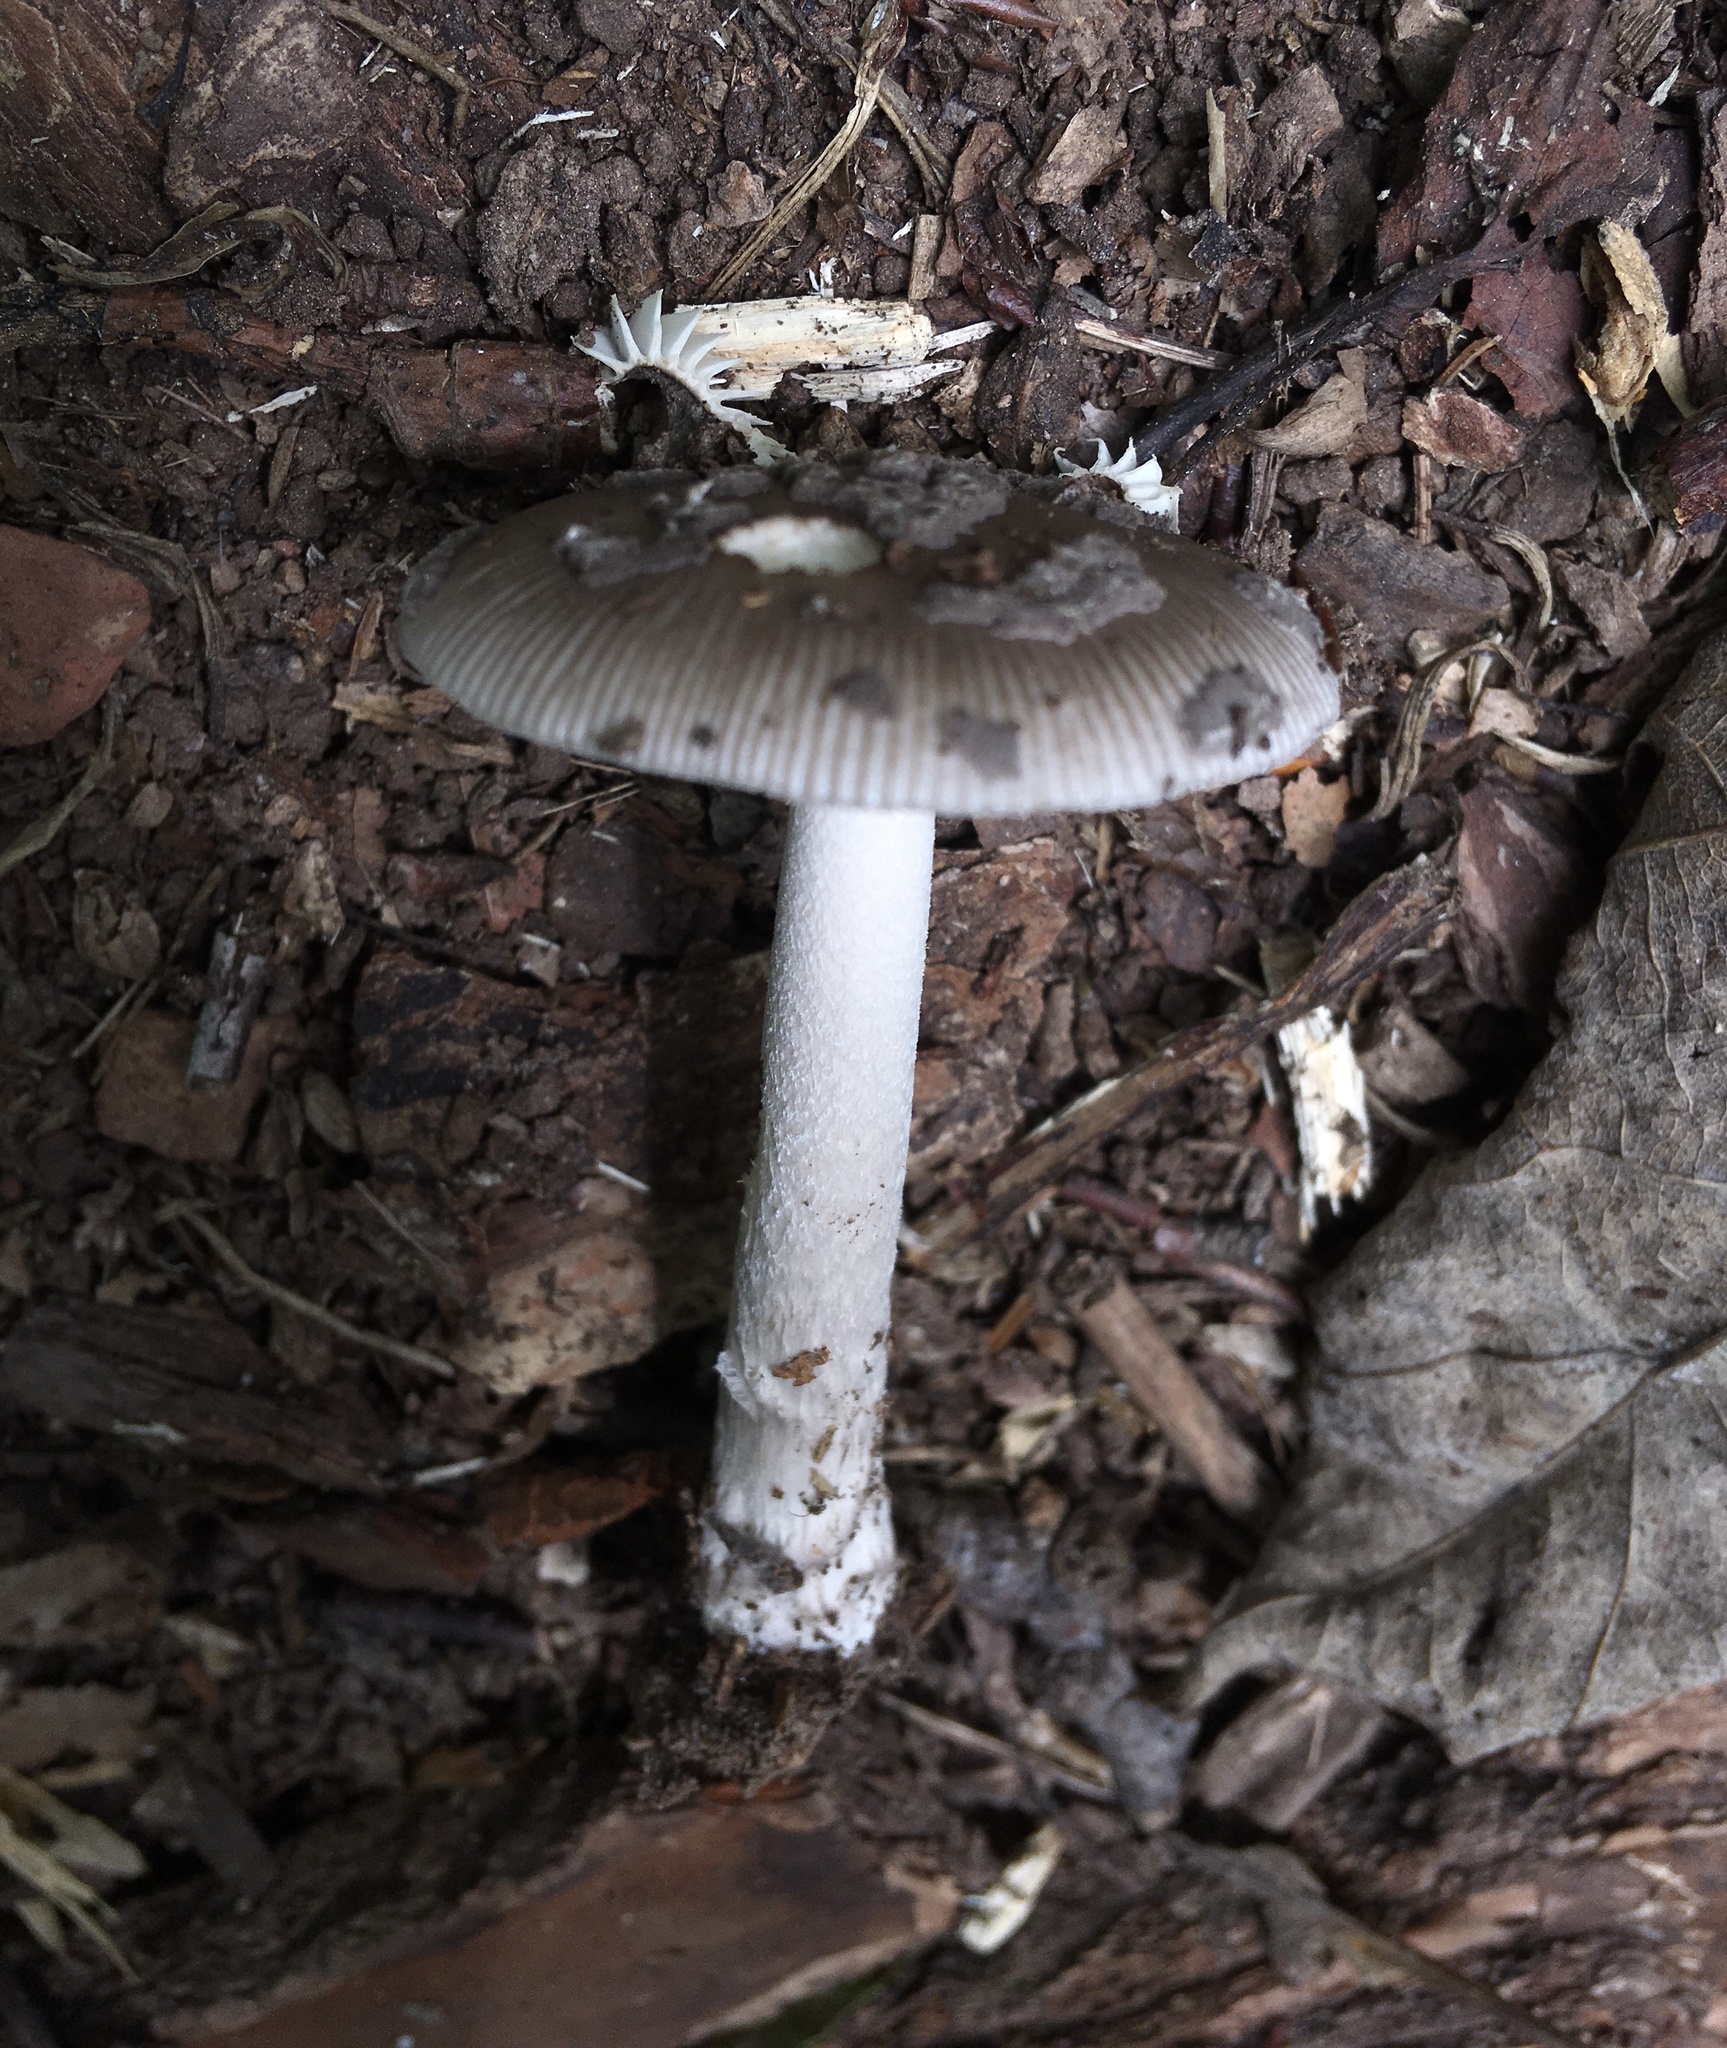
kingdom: Fungi
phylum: Basidiomycota
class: Agaricomycetes
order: Agaricales
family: Amanitaceae
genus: Amanita
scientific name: Amanita rhacopus
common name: Shaggy legged ringless amanita
